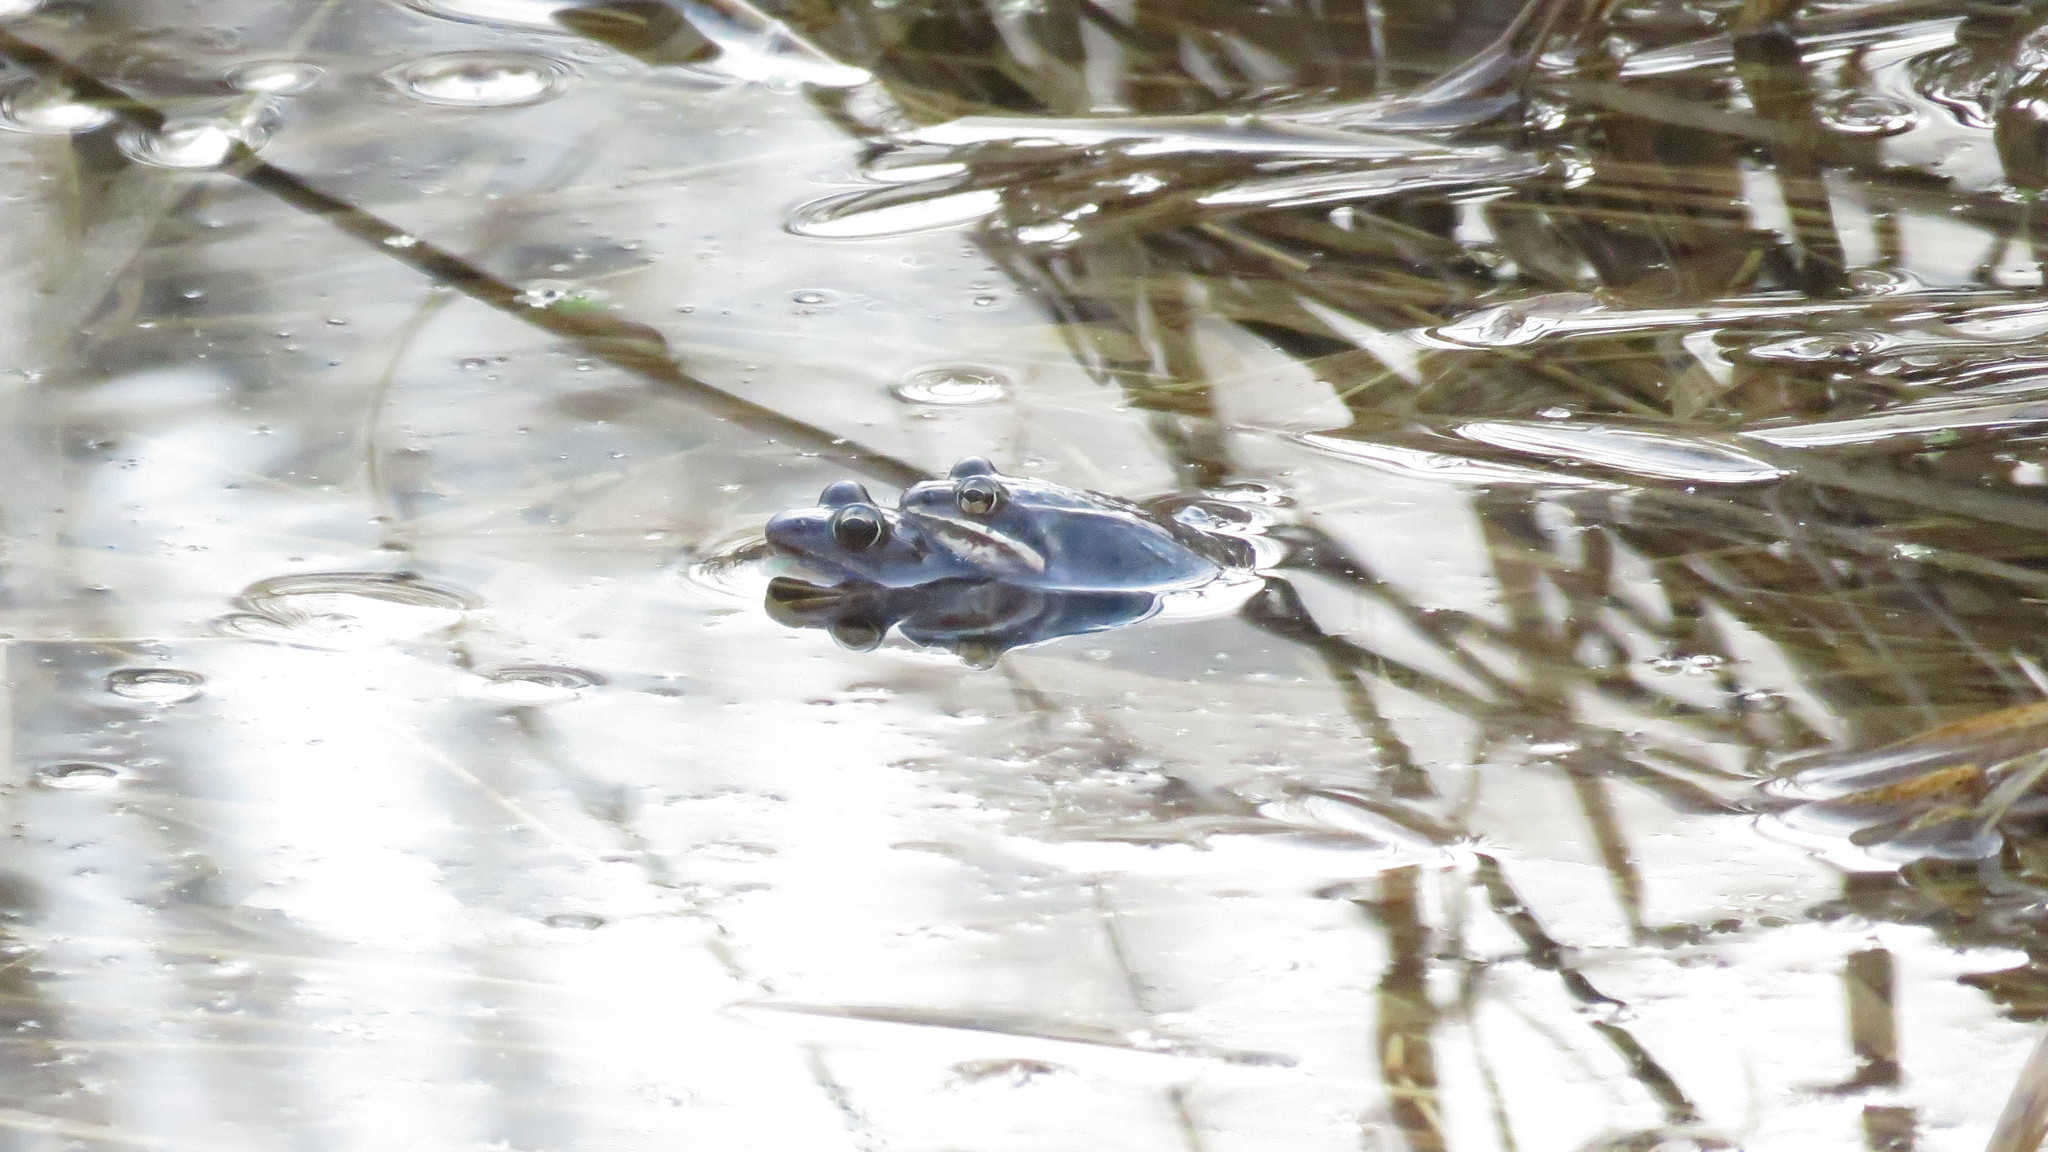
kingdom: Animalia
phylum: Chordata
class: Amphibia
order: Anura
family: Ranidae
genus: Lithobates
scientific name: Lithobates sylvaticus
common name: Wood frog
